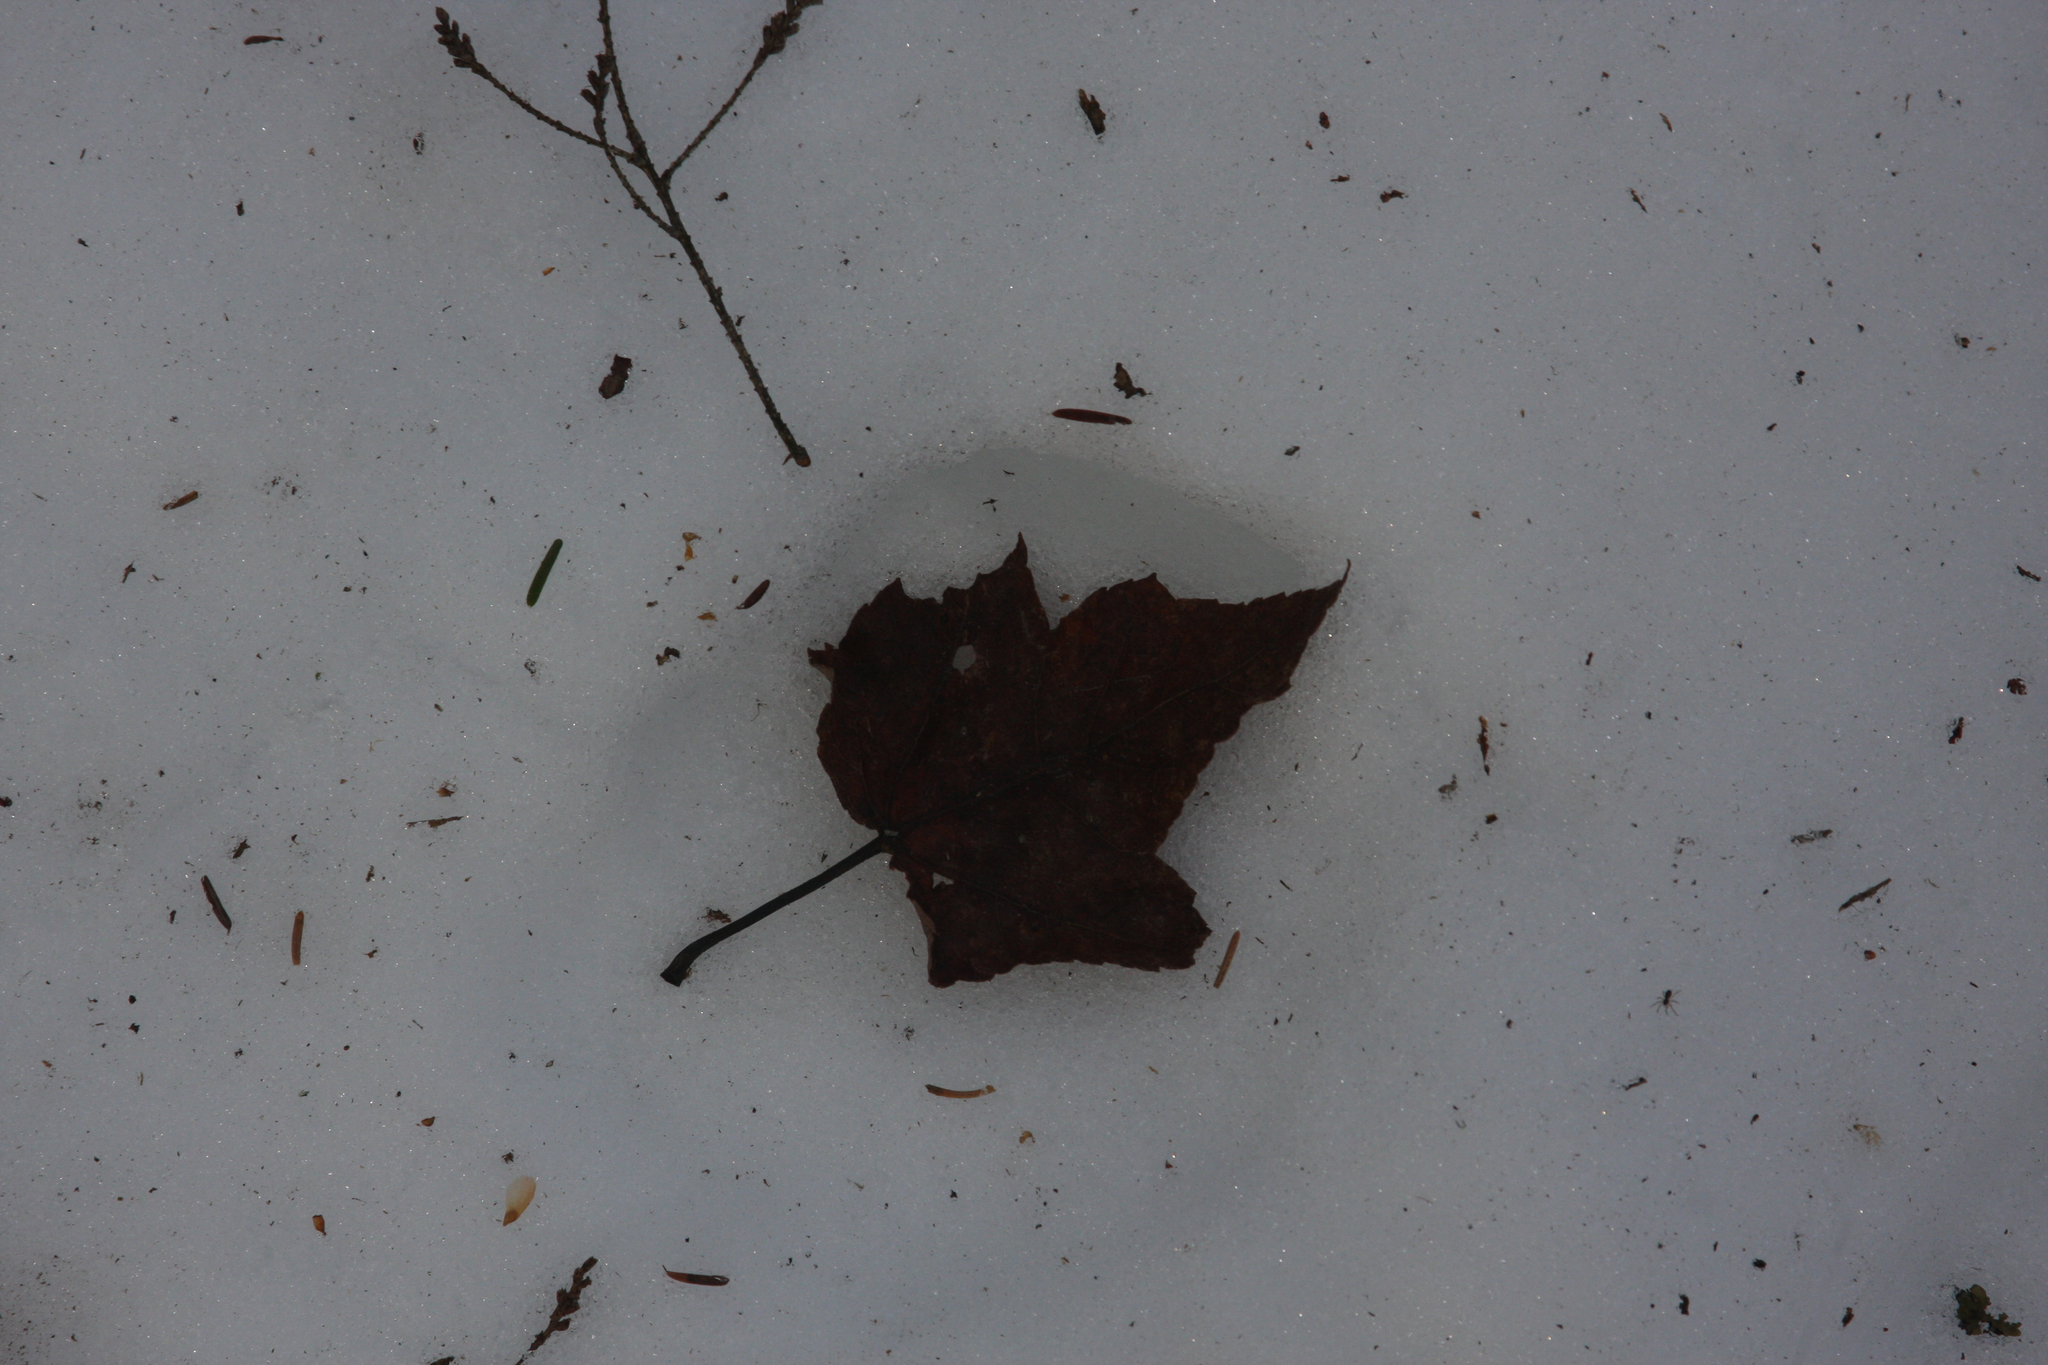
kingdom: Plantae
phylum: Tracheophyta
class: Magnoliopsida
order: Sapindales
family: Sapindaceae
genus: Acer
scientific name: Acer rubrum
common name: Red maple
